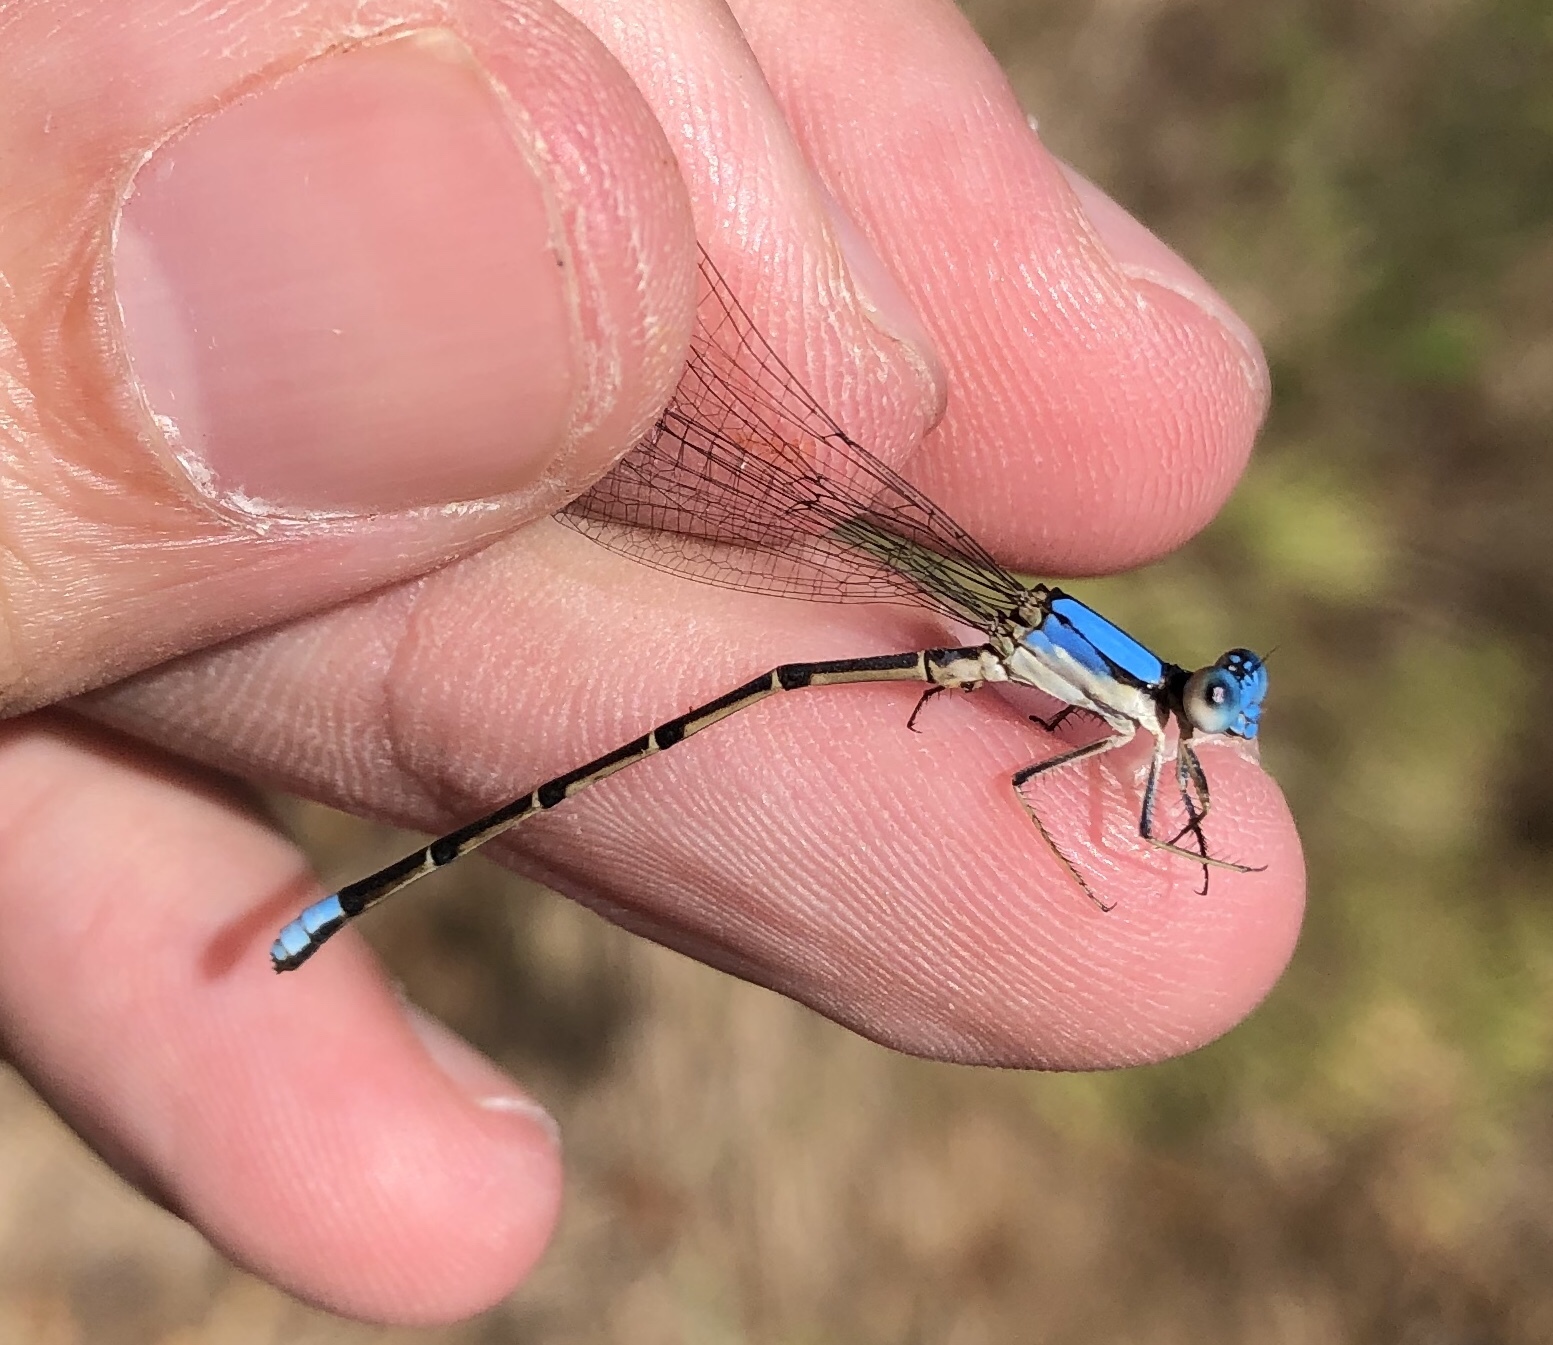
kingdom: Animalia
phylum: Arthropoda
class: Insecta
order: Odonata
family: Coenagrionidae
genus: Argia
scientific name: Argia apicalis
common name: Blue-fronted dancer
